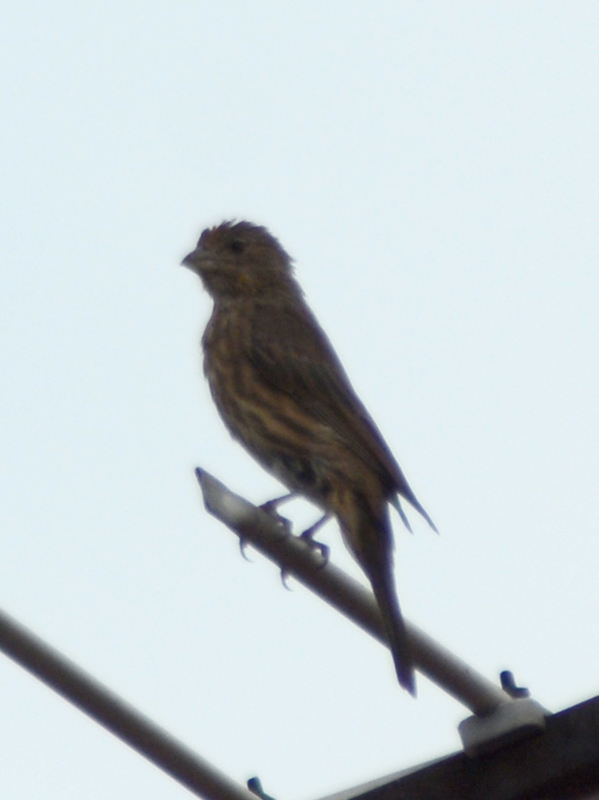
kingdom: Animalia
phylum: Chordata
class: Aves
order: Passeriformes
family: Fringillidae
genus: Haemorhous
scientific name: Haemorhous mexicanus
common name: House finch
